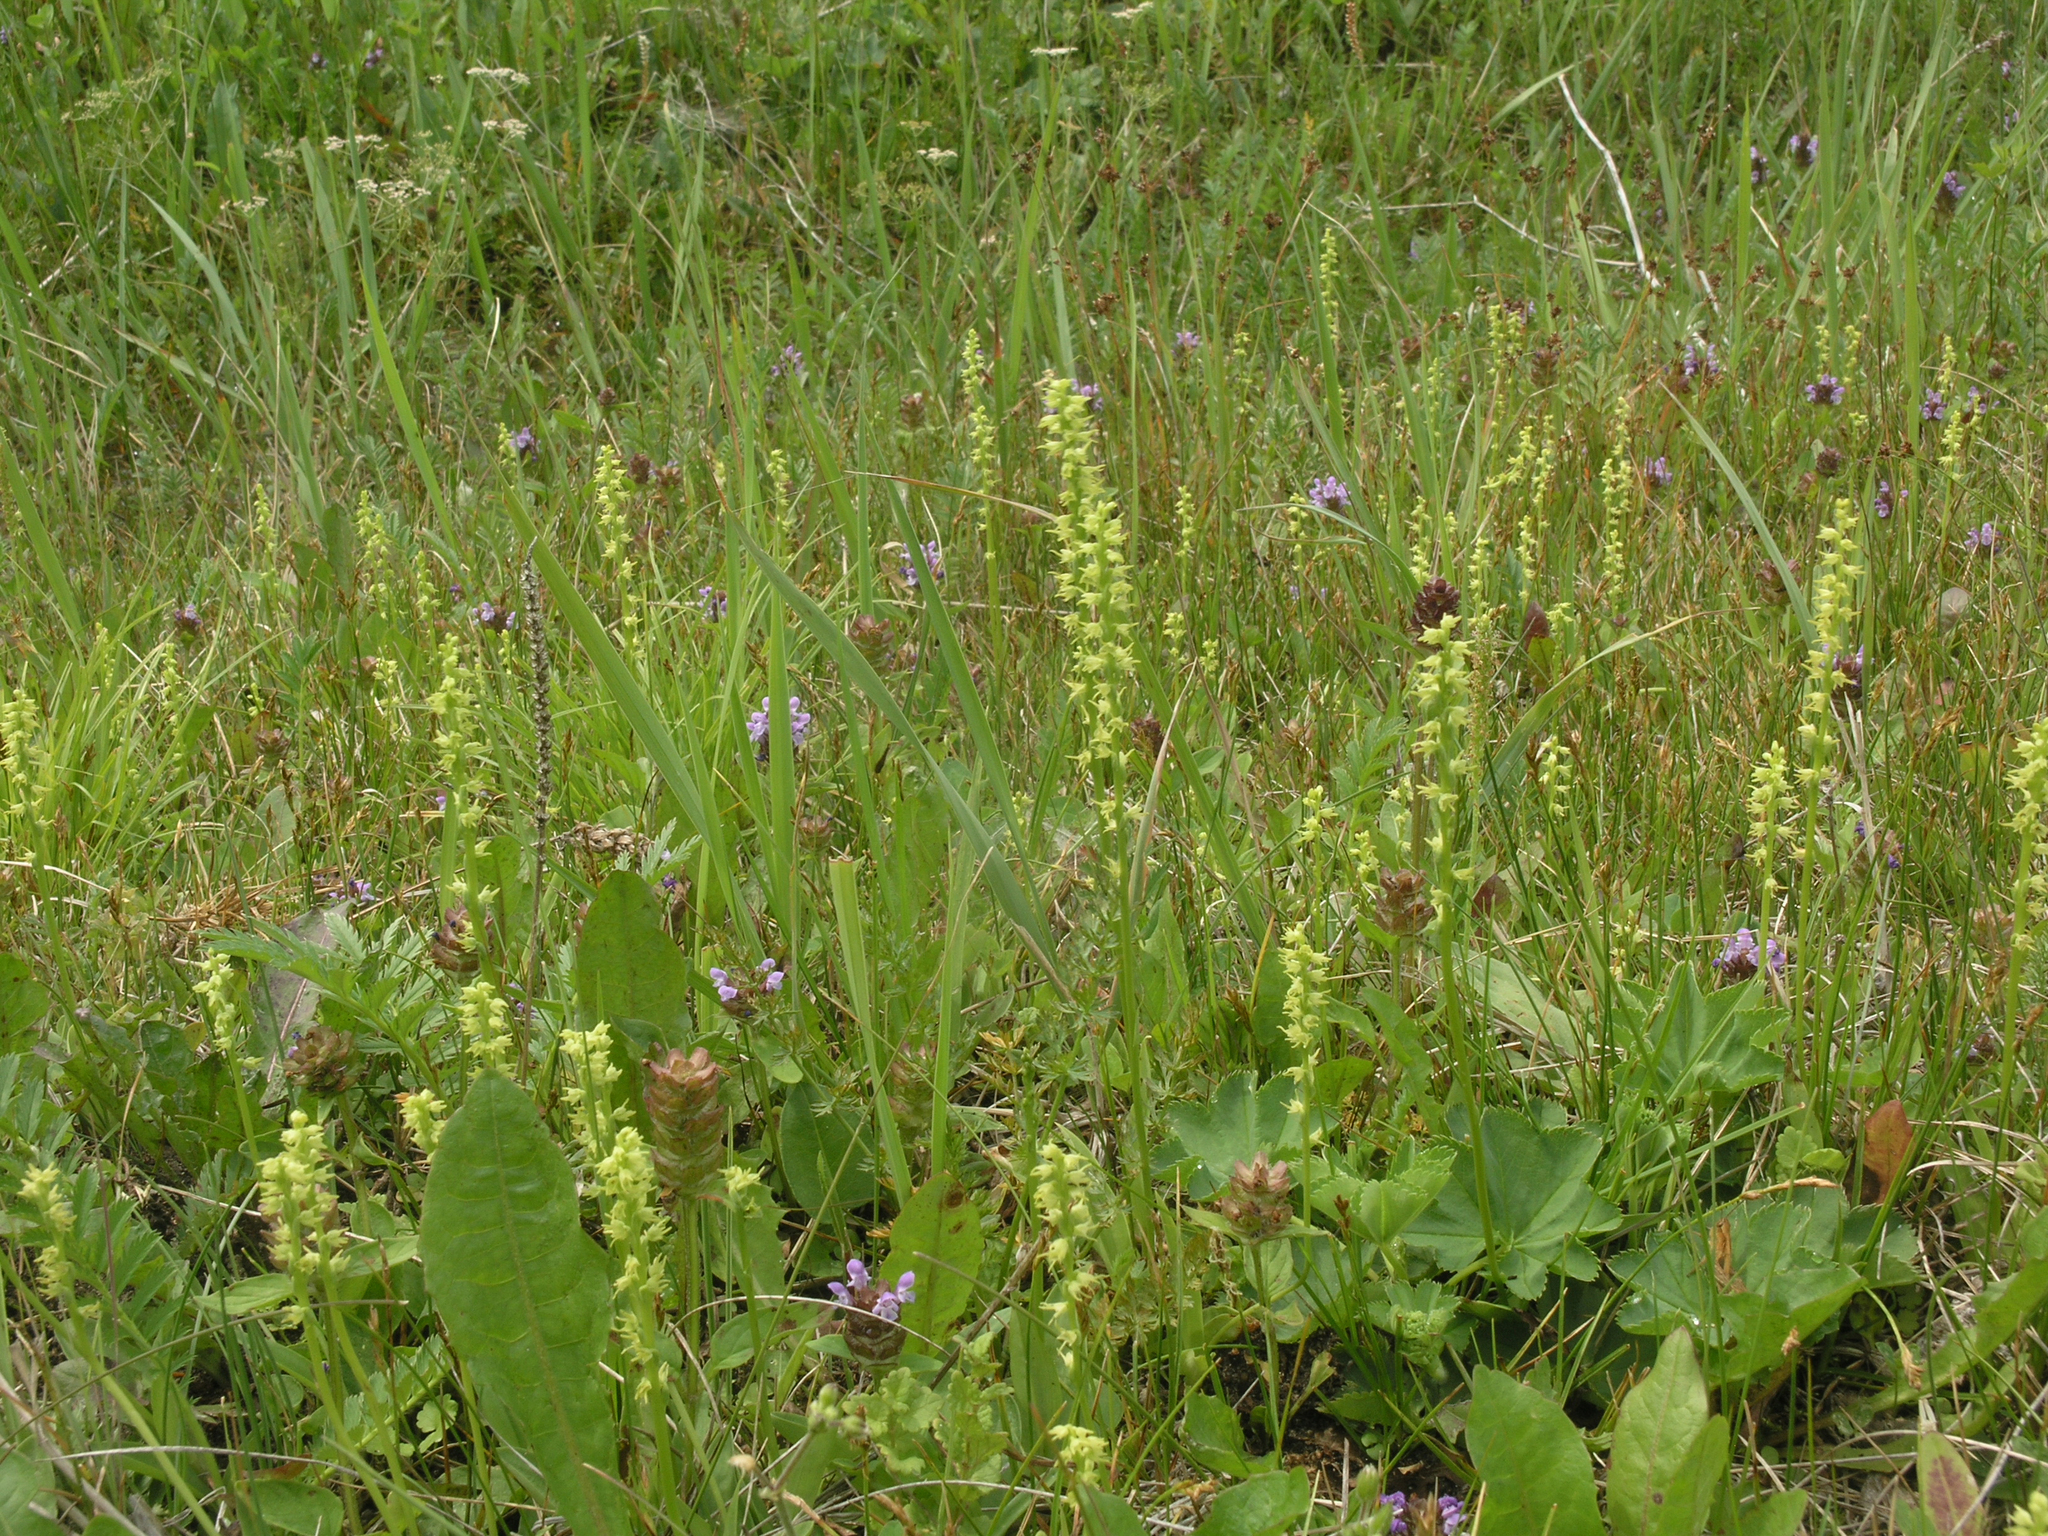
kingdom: Plantae
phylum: Tracheophyta
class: Liliopsida
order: Asparagales
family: Orchidaceae
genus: Herminium
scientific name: Herminium monorchis
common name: Musk orchid
